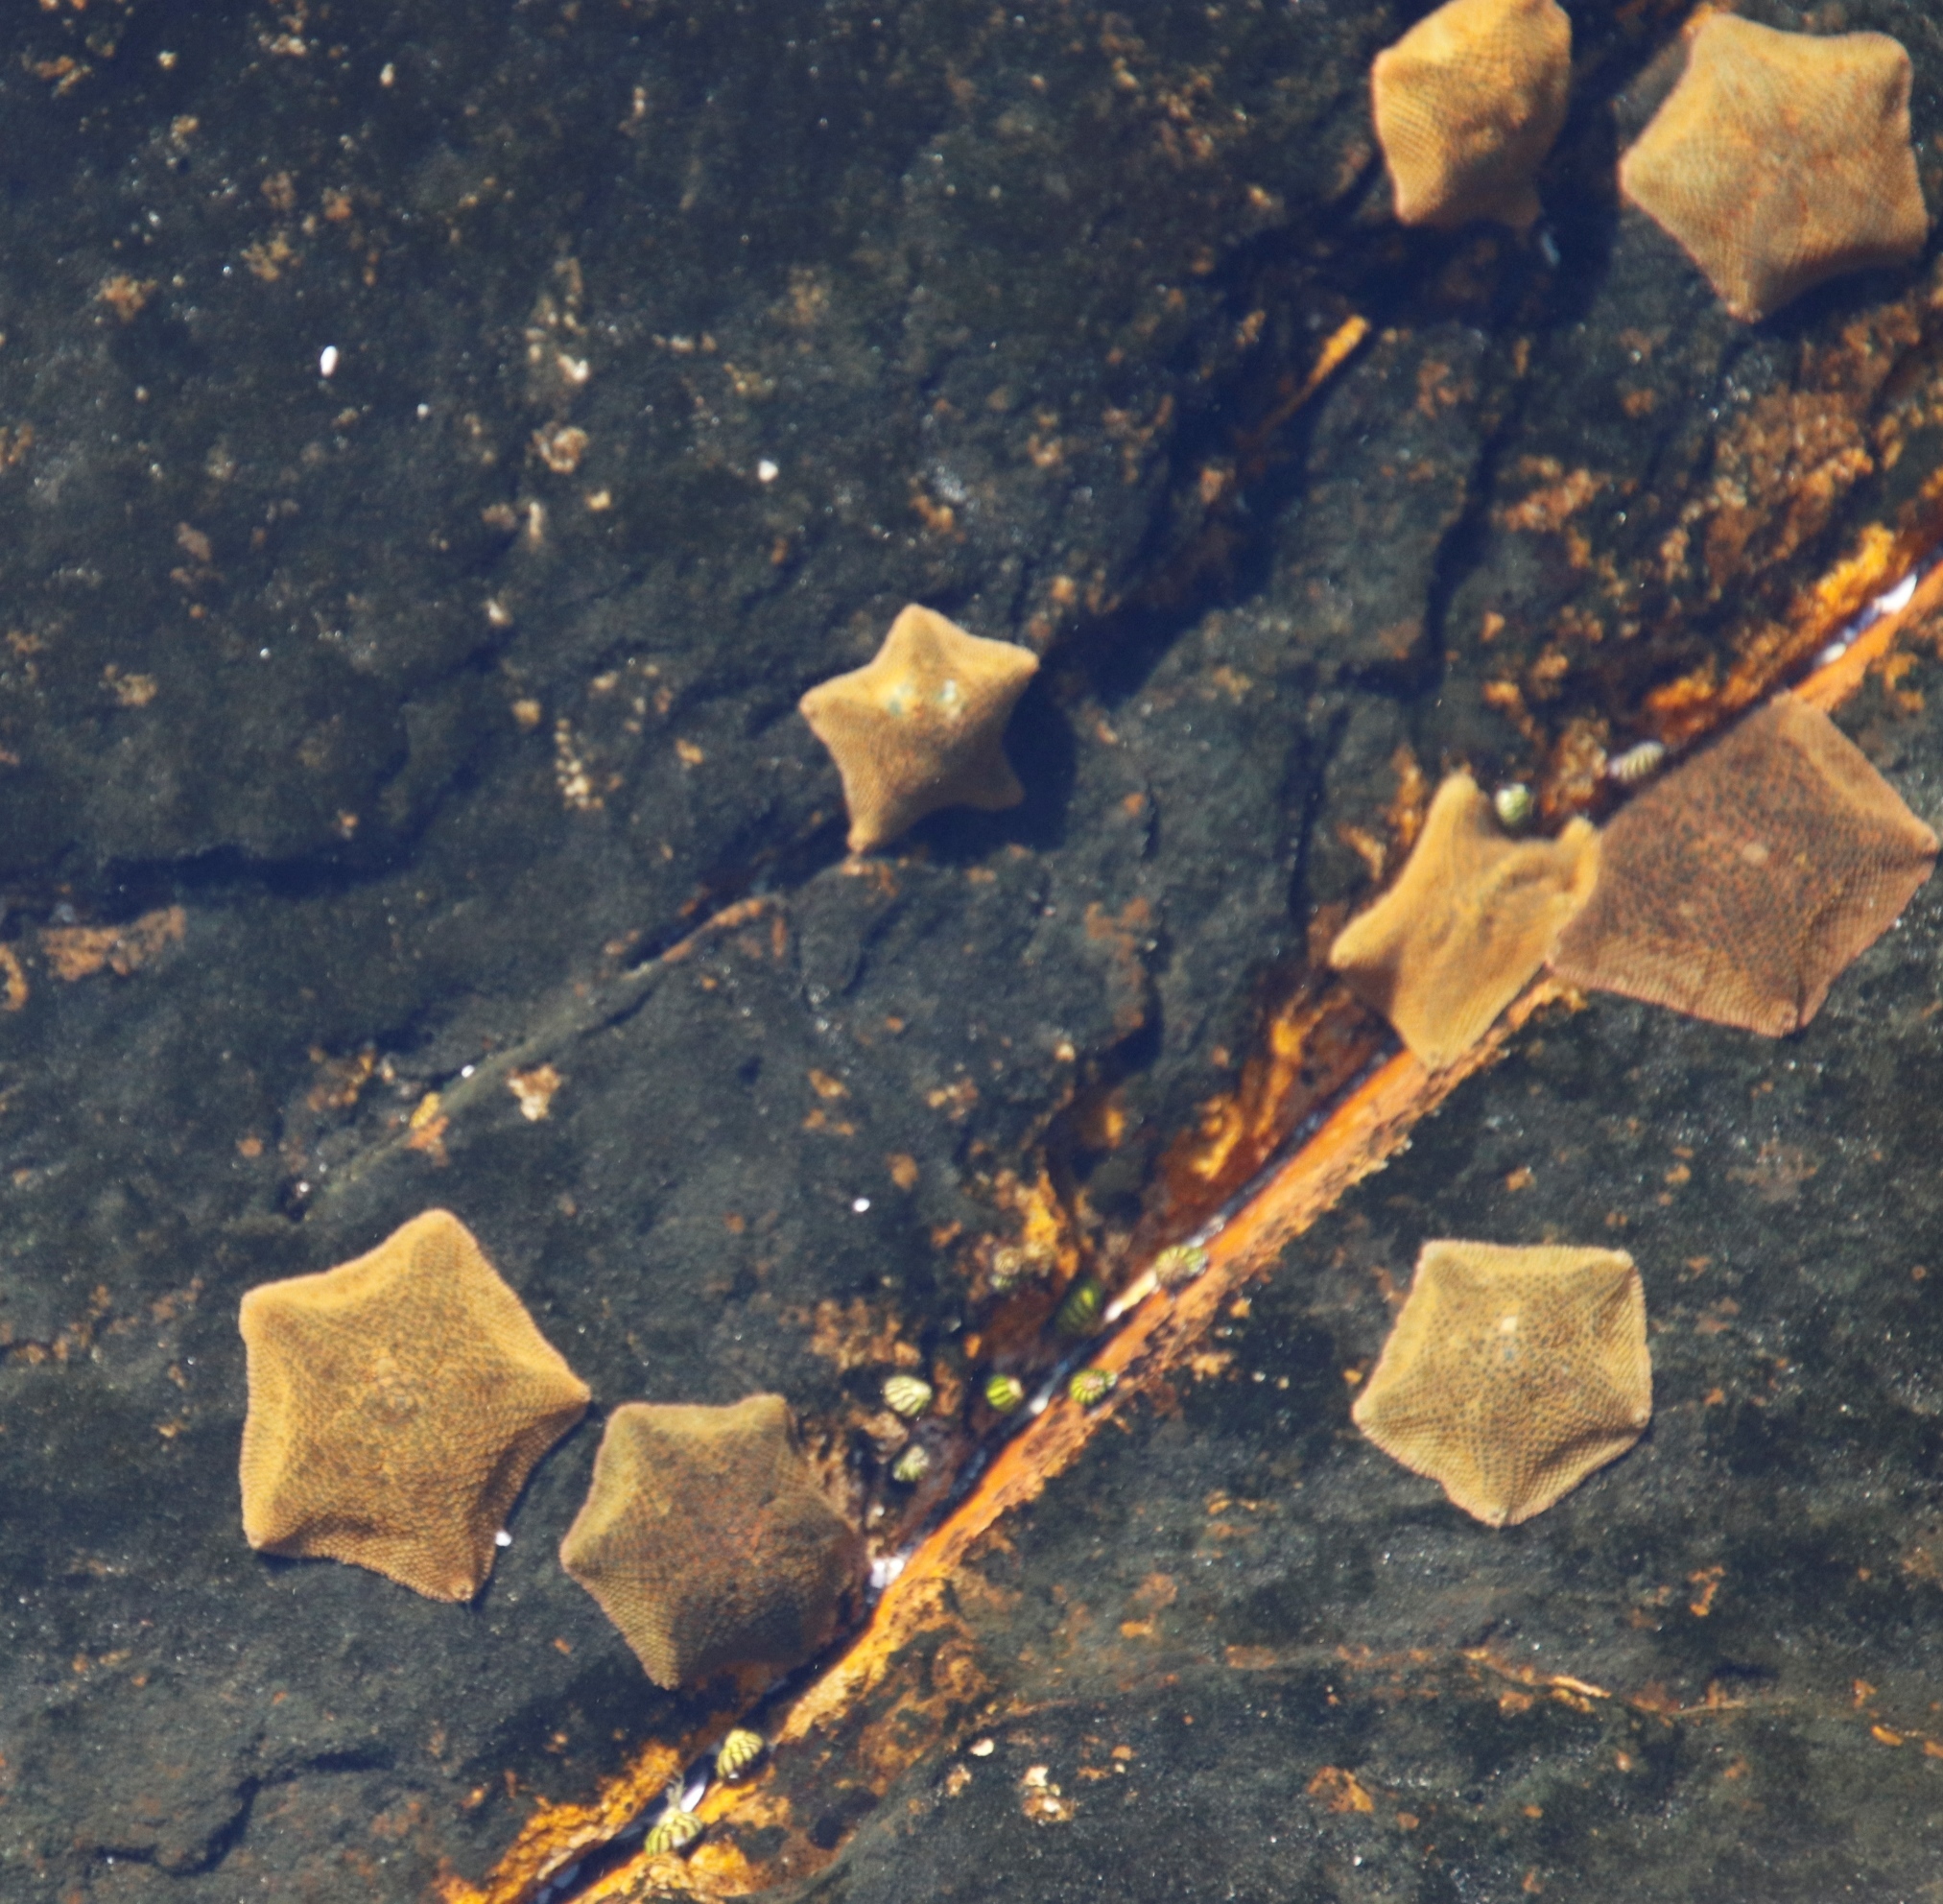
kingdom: Animalia
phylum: Echinodermata
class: Asteroidea
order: Valvatida
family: Asterinidae
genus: Parvulastra
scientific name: Parvulastra exigua
